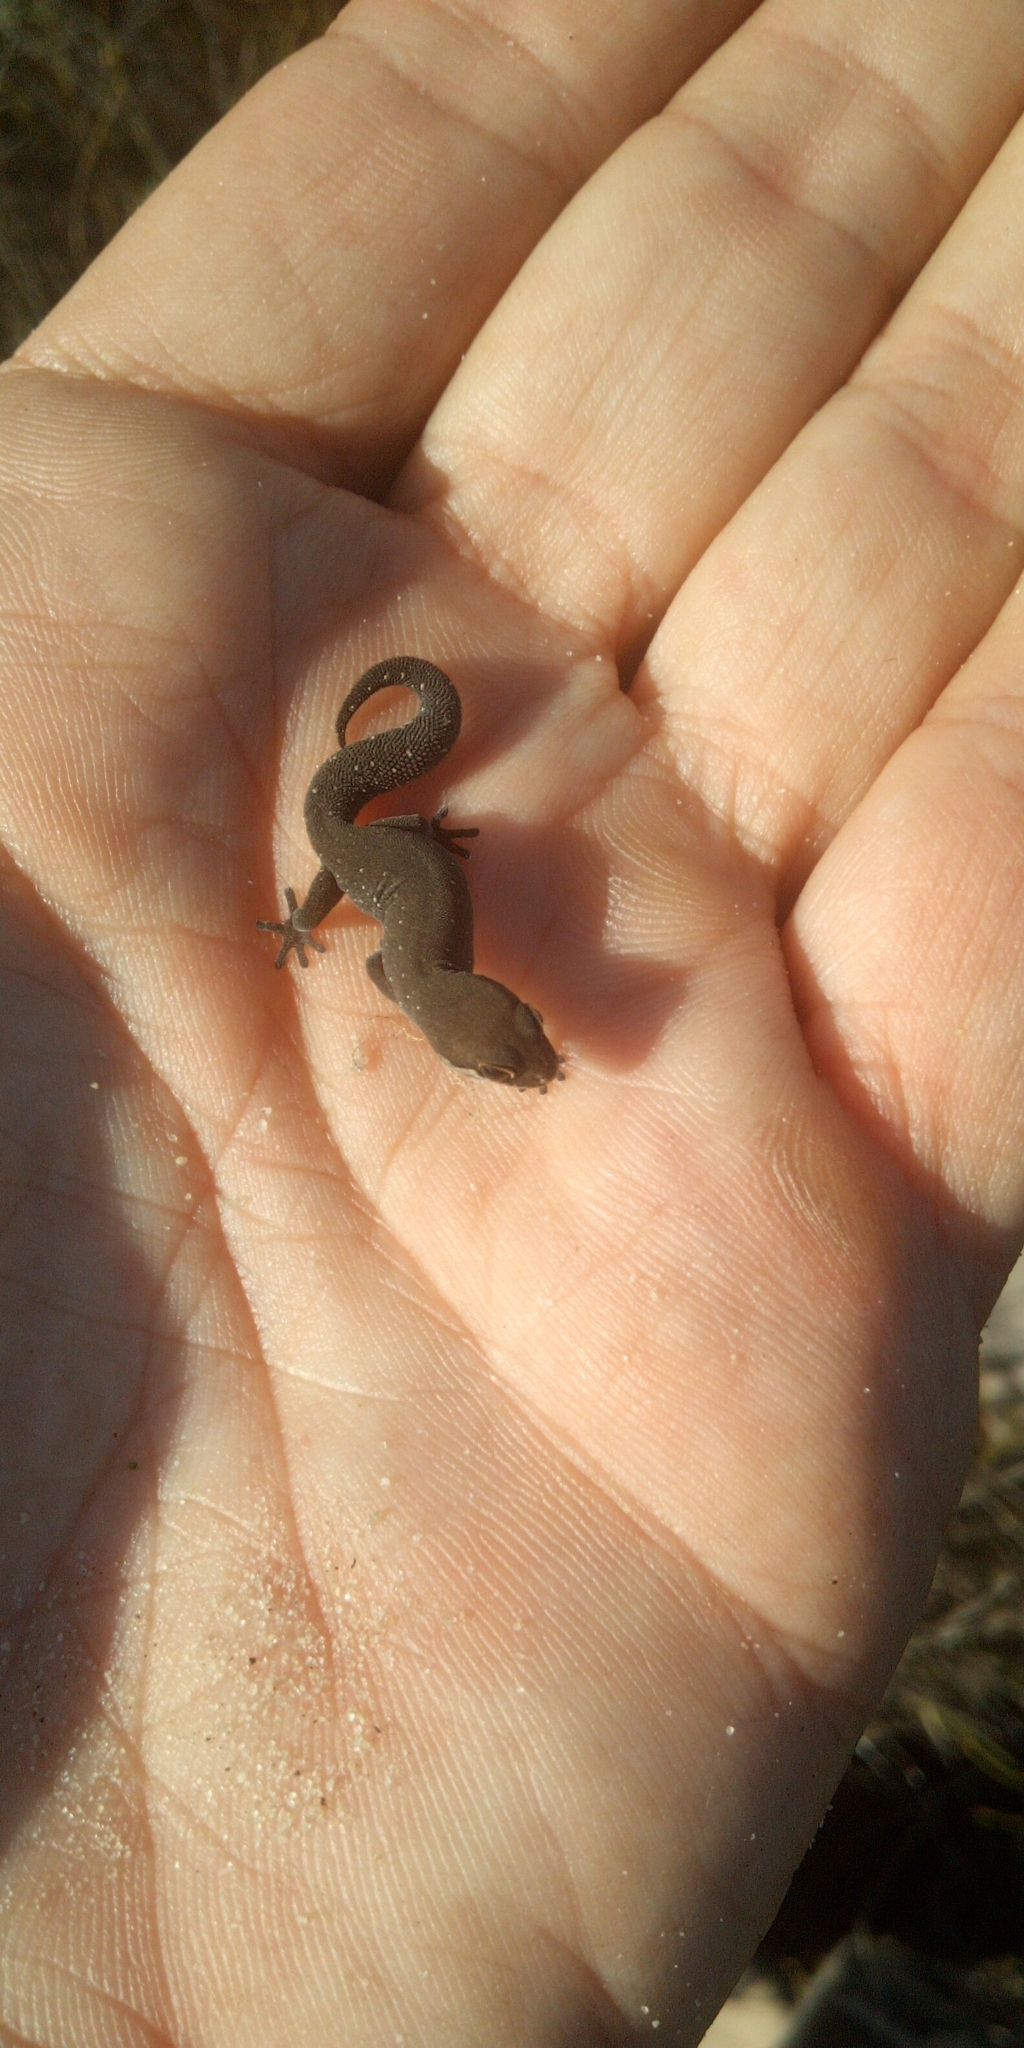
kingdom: Animalia
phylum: Chordata
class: Squamata
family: Gekkonidae
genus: Pachydactylus
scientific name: Pachydactylus geitje
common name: Ocellated thick-toed gecko
